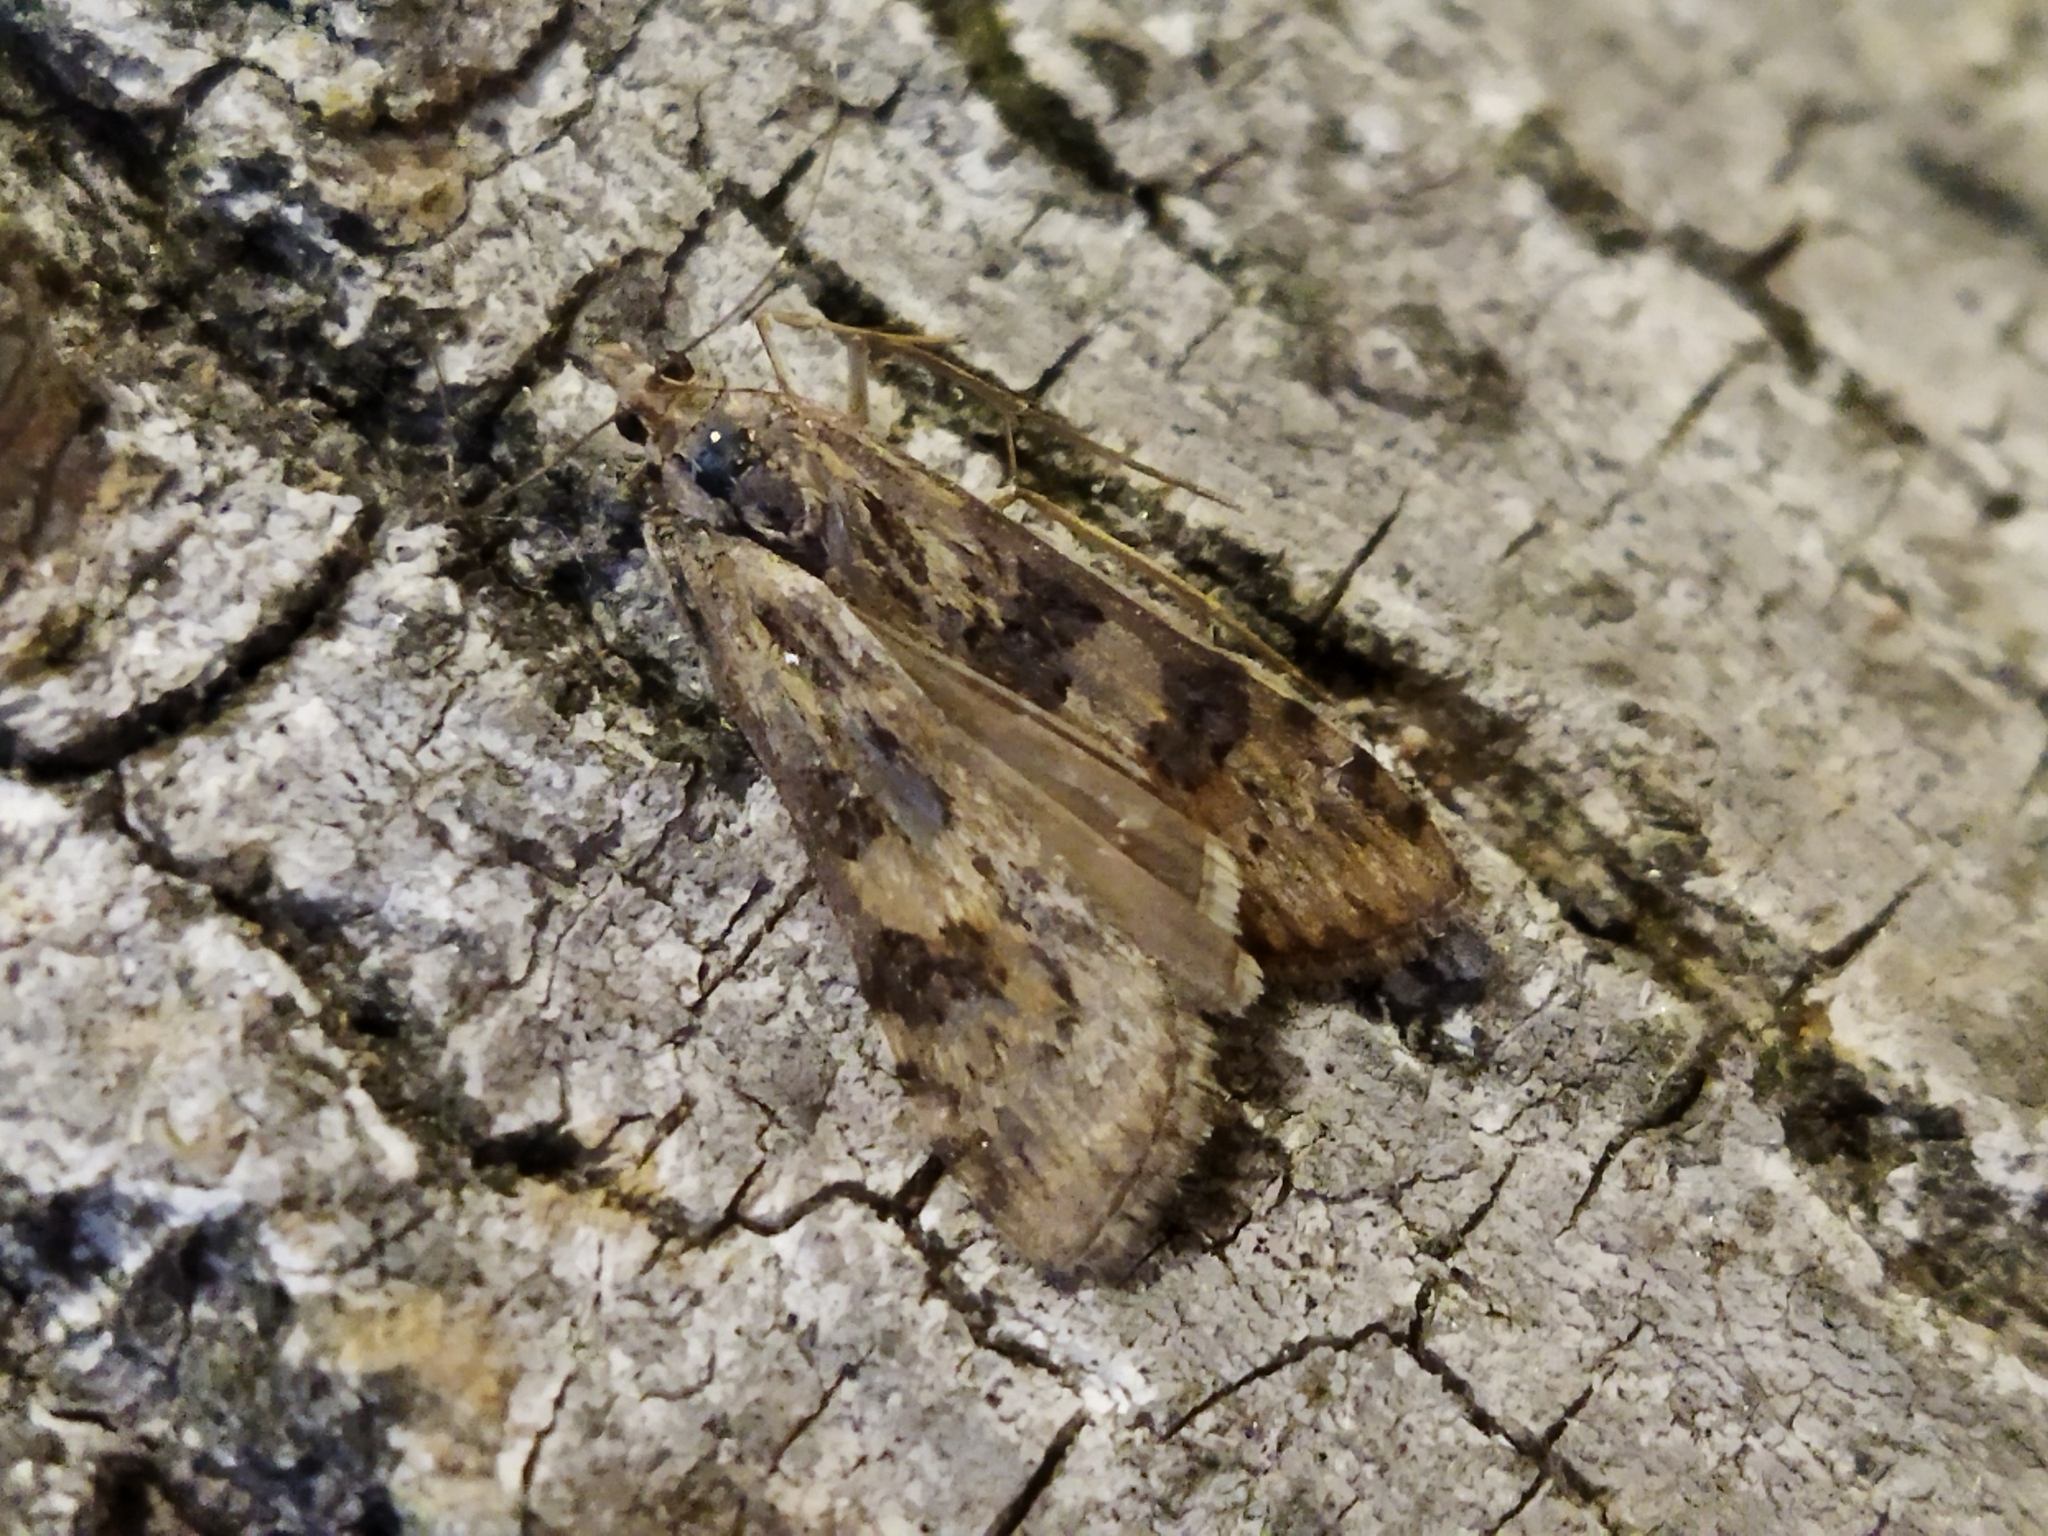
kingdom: Animalia
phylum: Arthropoda
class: Insecta
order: Lepidoptera
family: Crambidae
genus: Nomophila
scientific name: Nomophila noctuella
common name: Rush veneer
